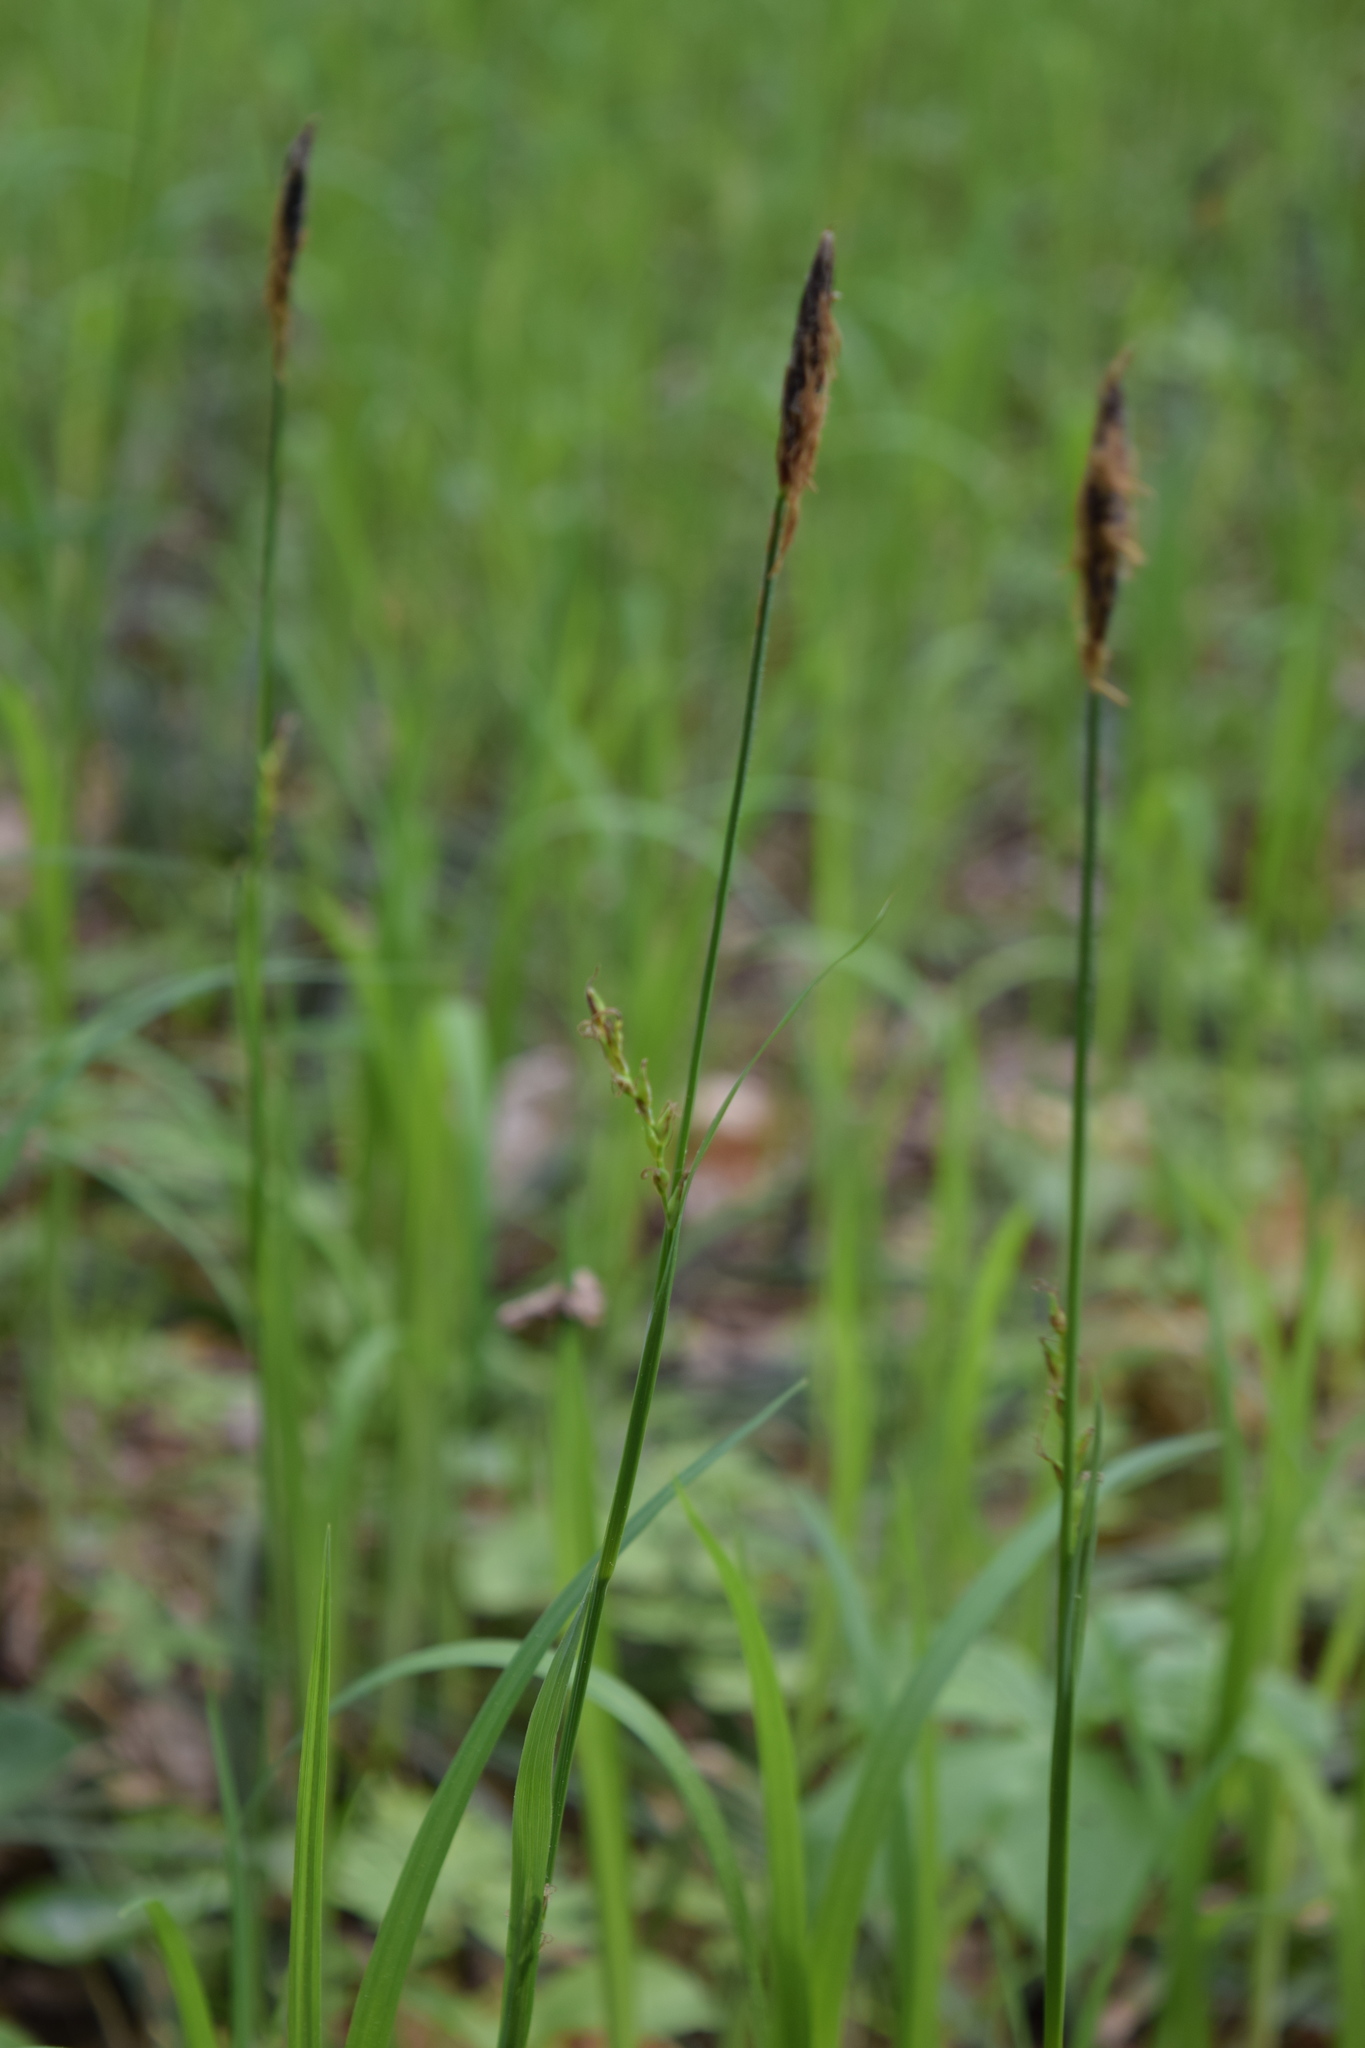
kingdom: Plantae
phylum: Tracheophyta
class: Liliopsida
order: Poales
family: Cyperaceae
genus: Carex
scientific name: Carex pilosa
